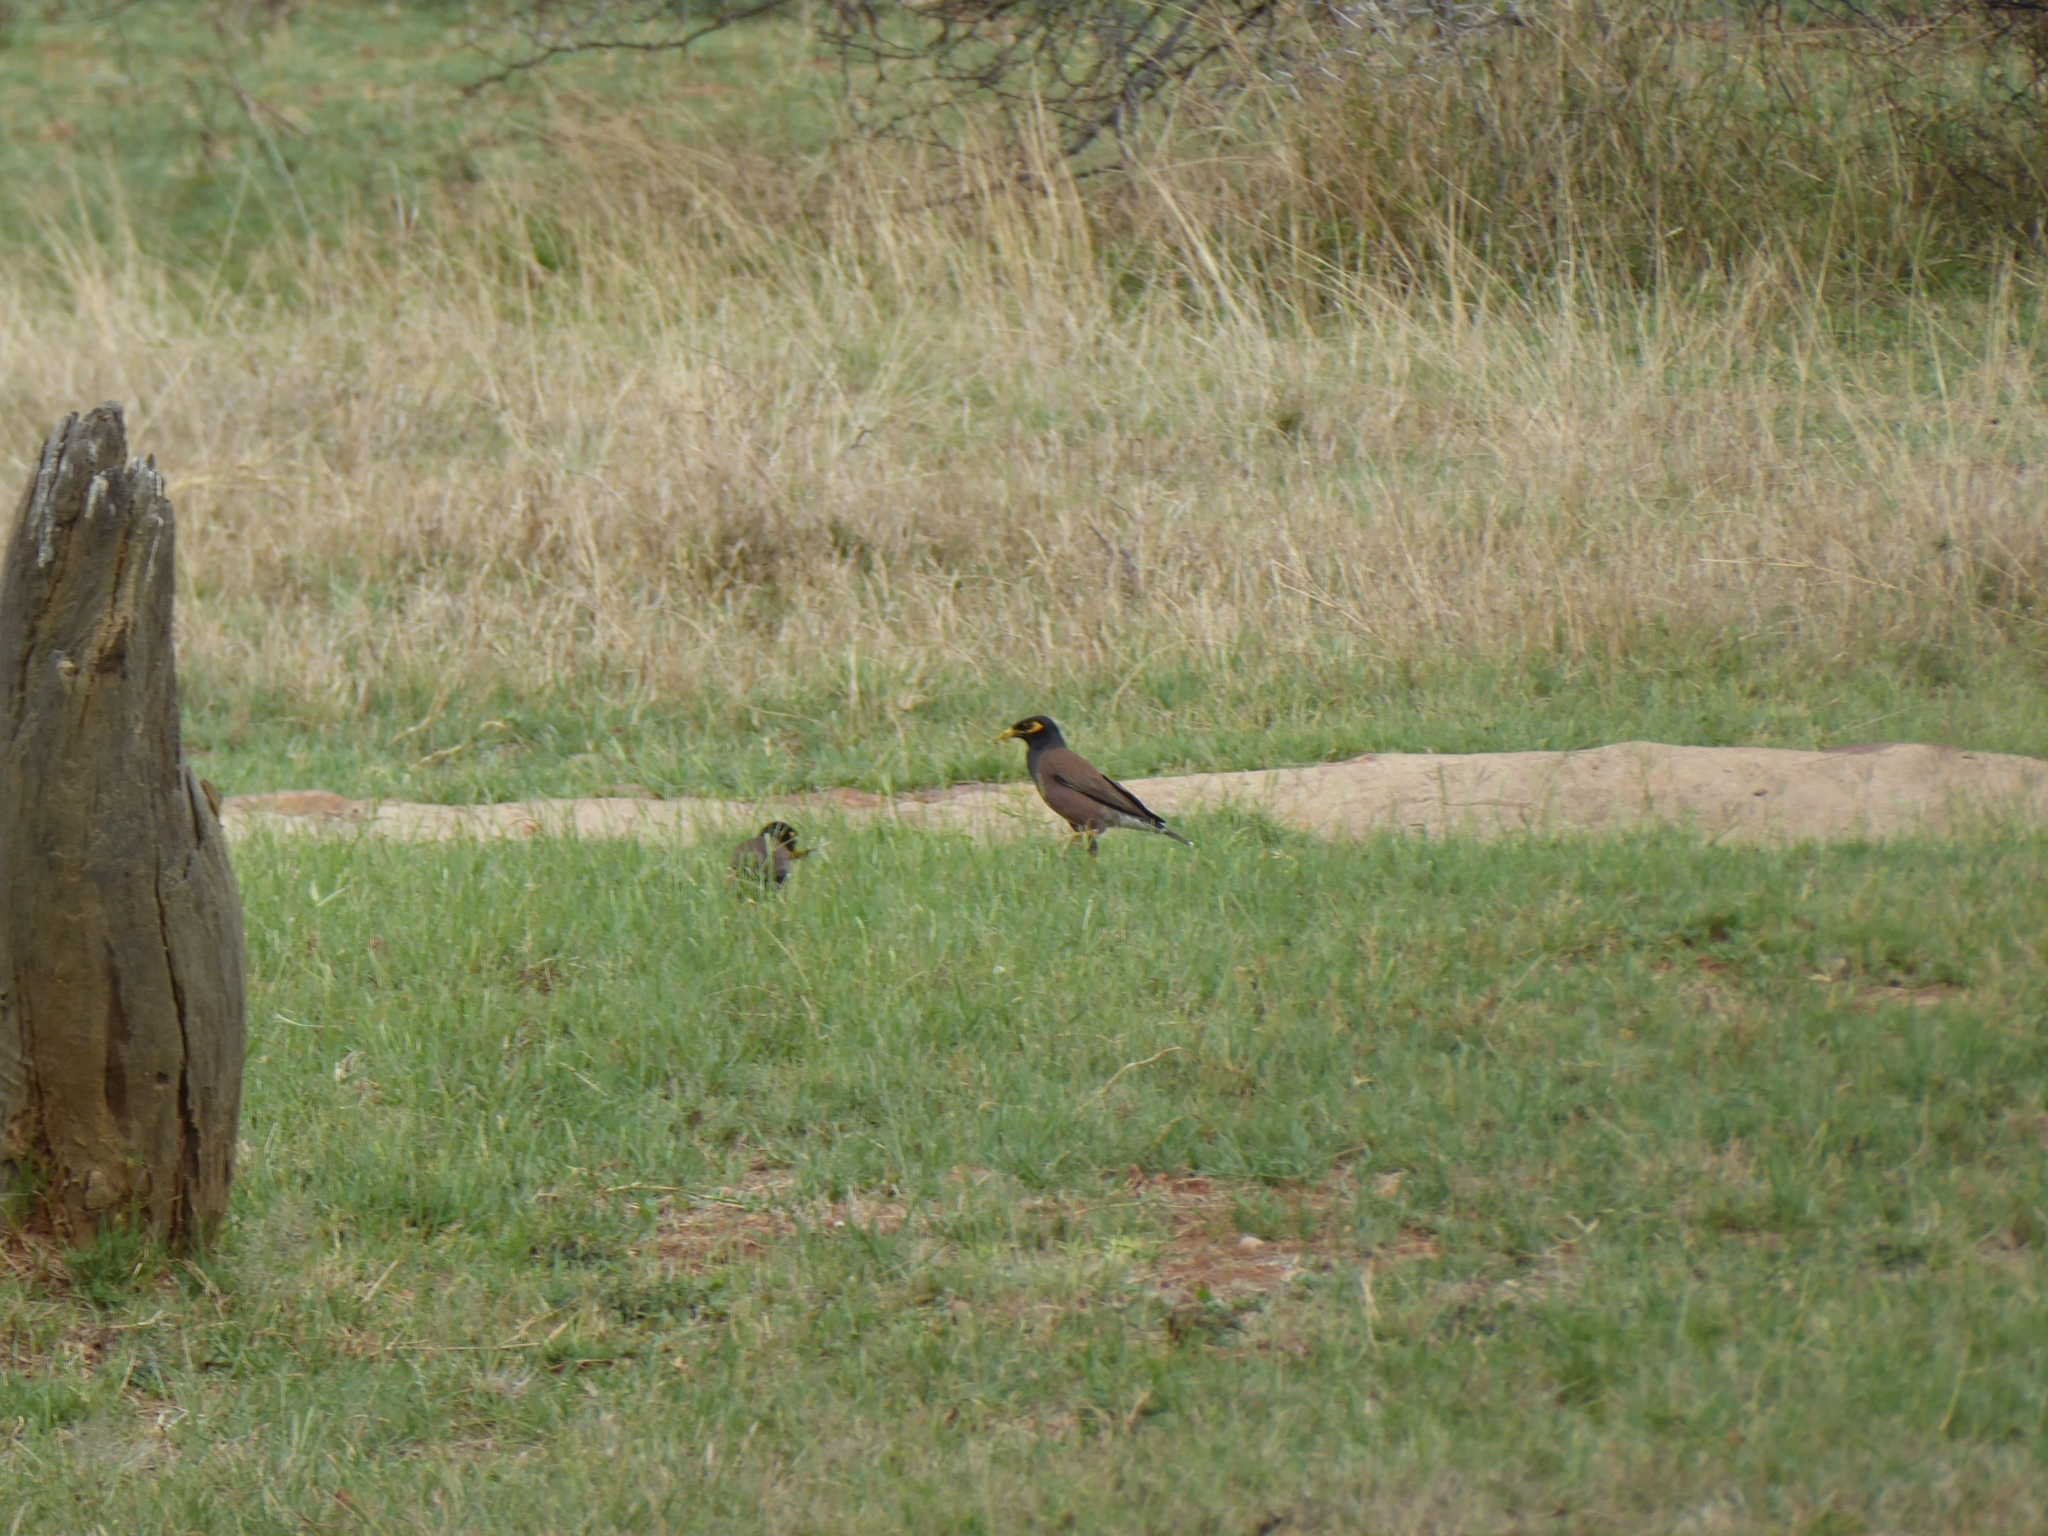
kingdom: Animalia
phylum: Chordata
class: Aves
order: Passeriformes
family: Sturnidae
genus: Acridotheres
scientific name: Acridotheres tristis
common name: Common myna
